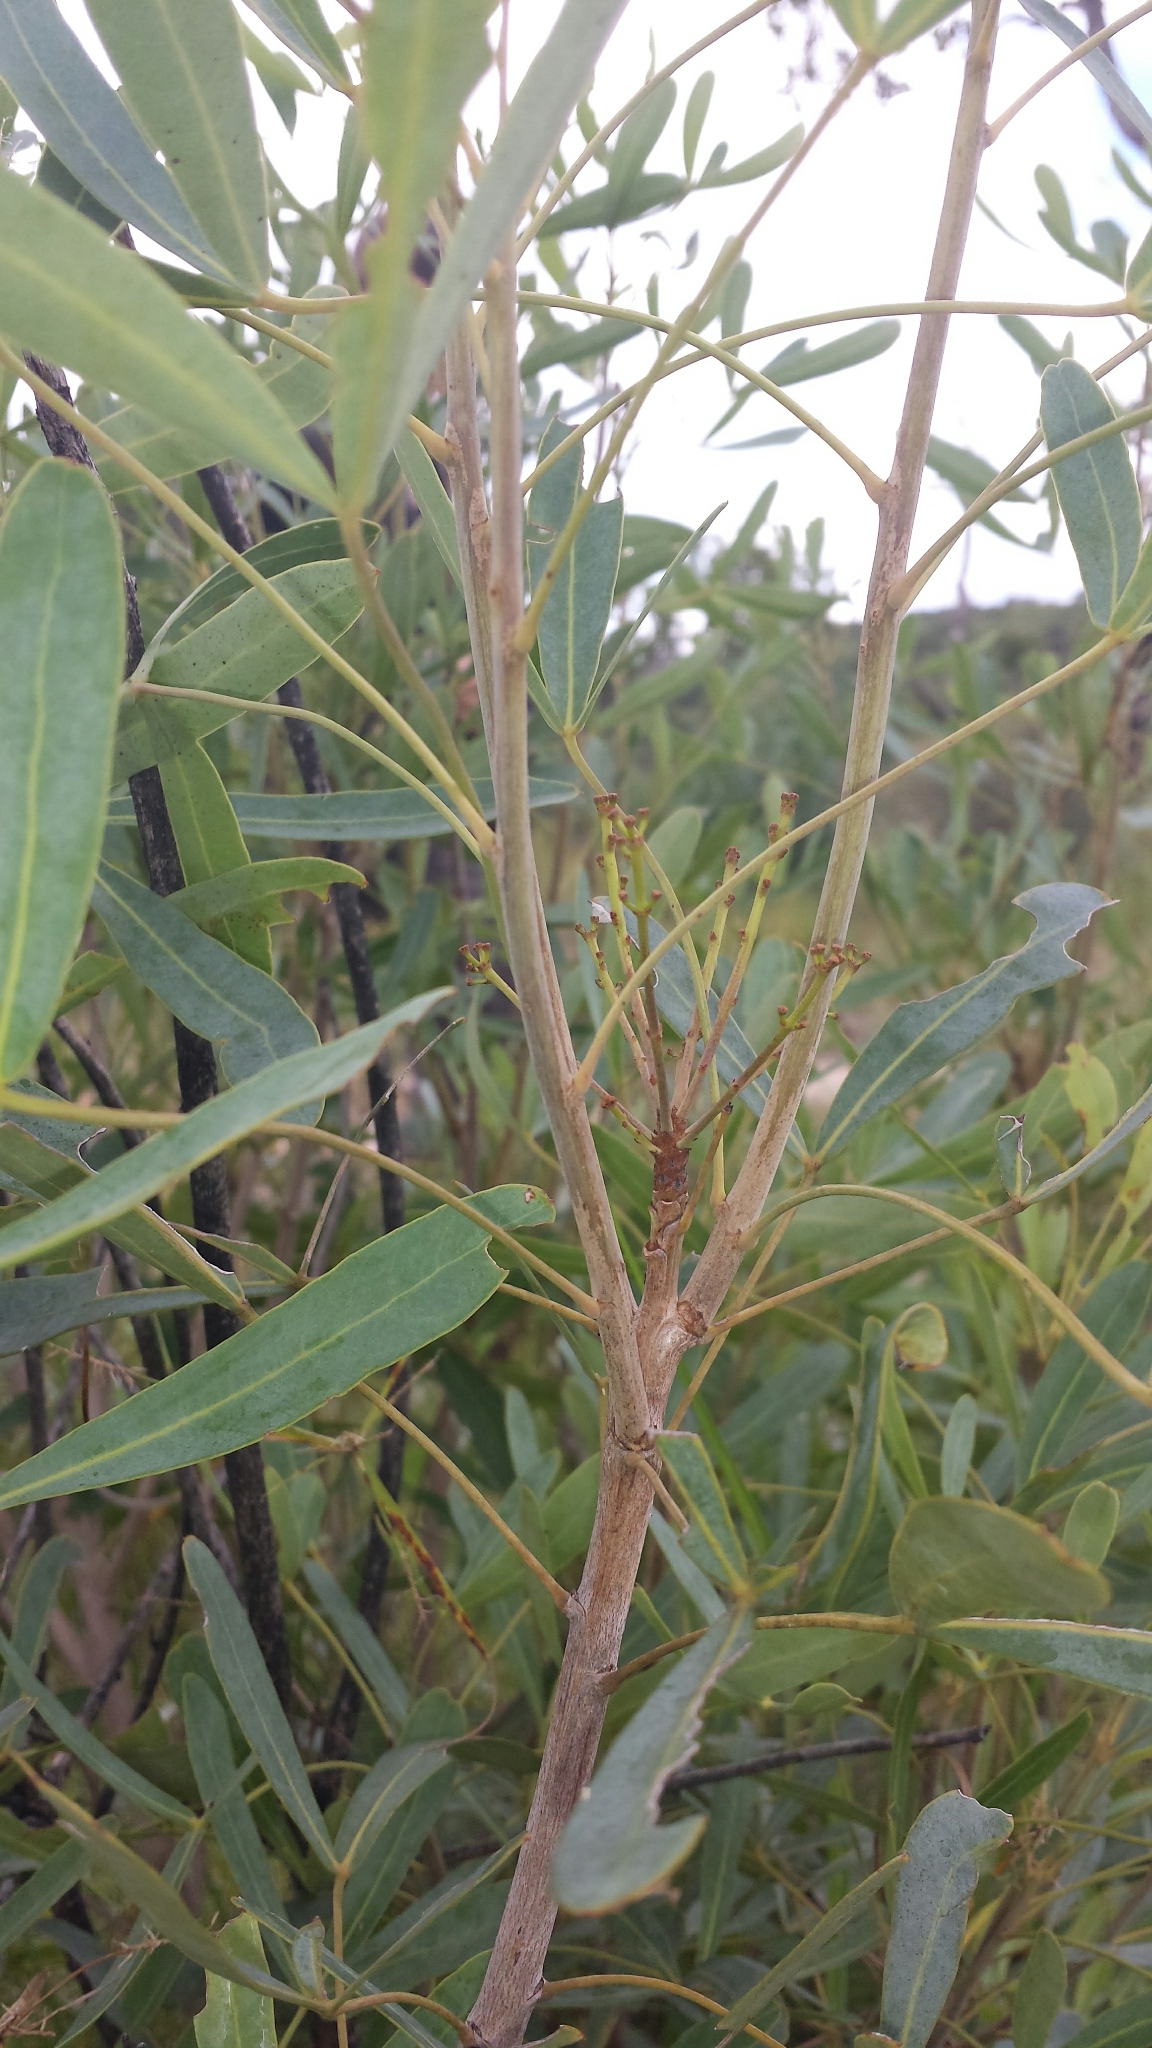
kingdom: Plantae
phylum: Tracheophyta
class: Magnoliopsida
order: Apiales
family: Araliaceae
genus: Neocussonia
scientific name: Neocussonia bojeri
